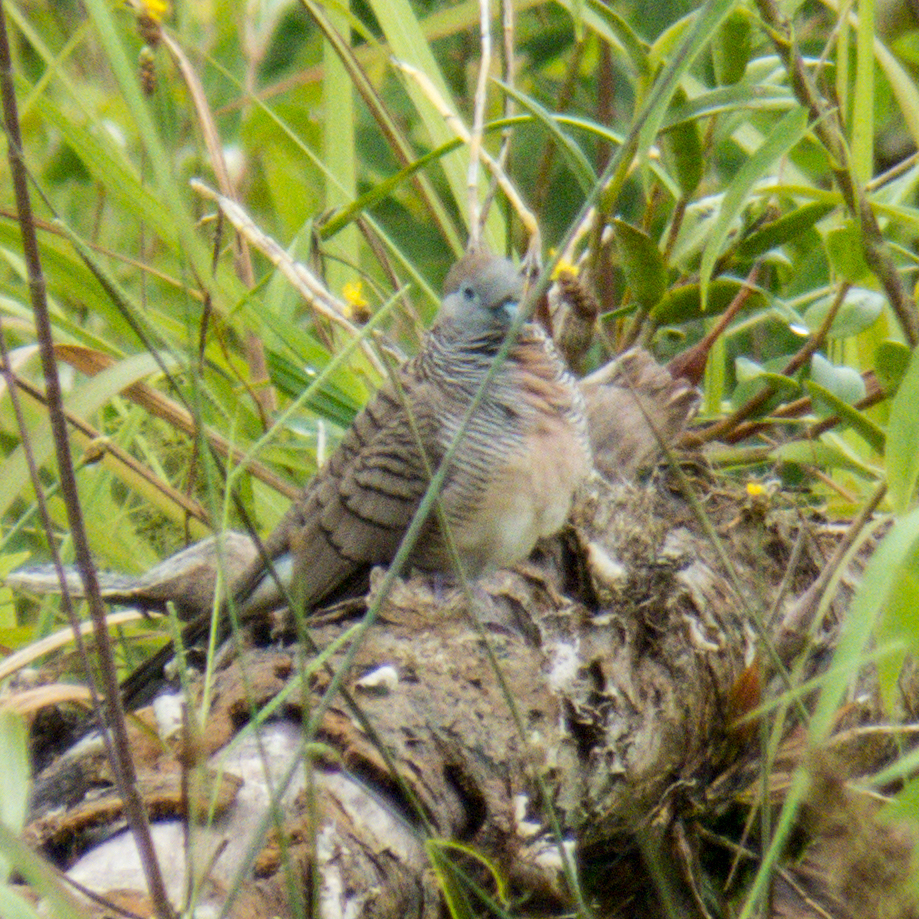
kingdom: Animalia
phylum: Chordata
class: Aves
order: Columbiformes
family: Columbidae
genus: Geopelia
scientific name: Geopelia striata
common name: Zebra dove
